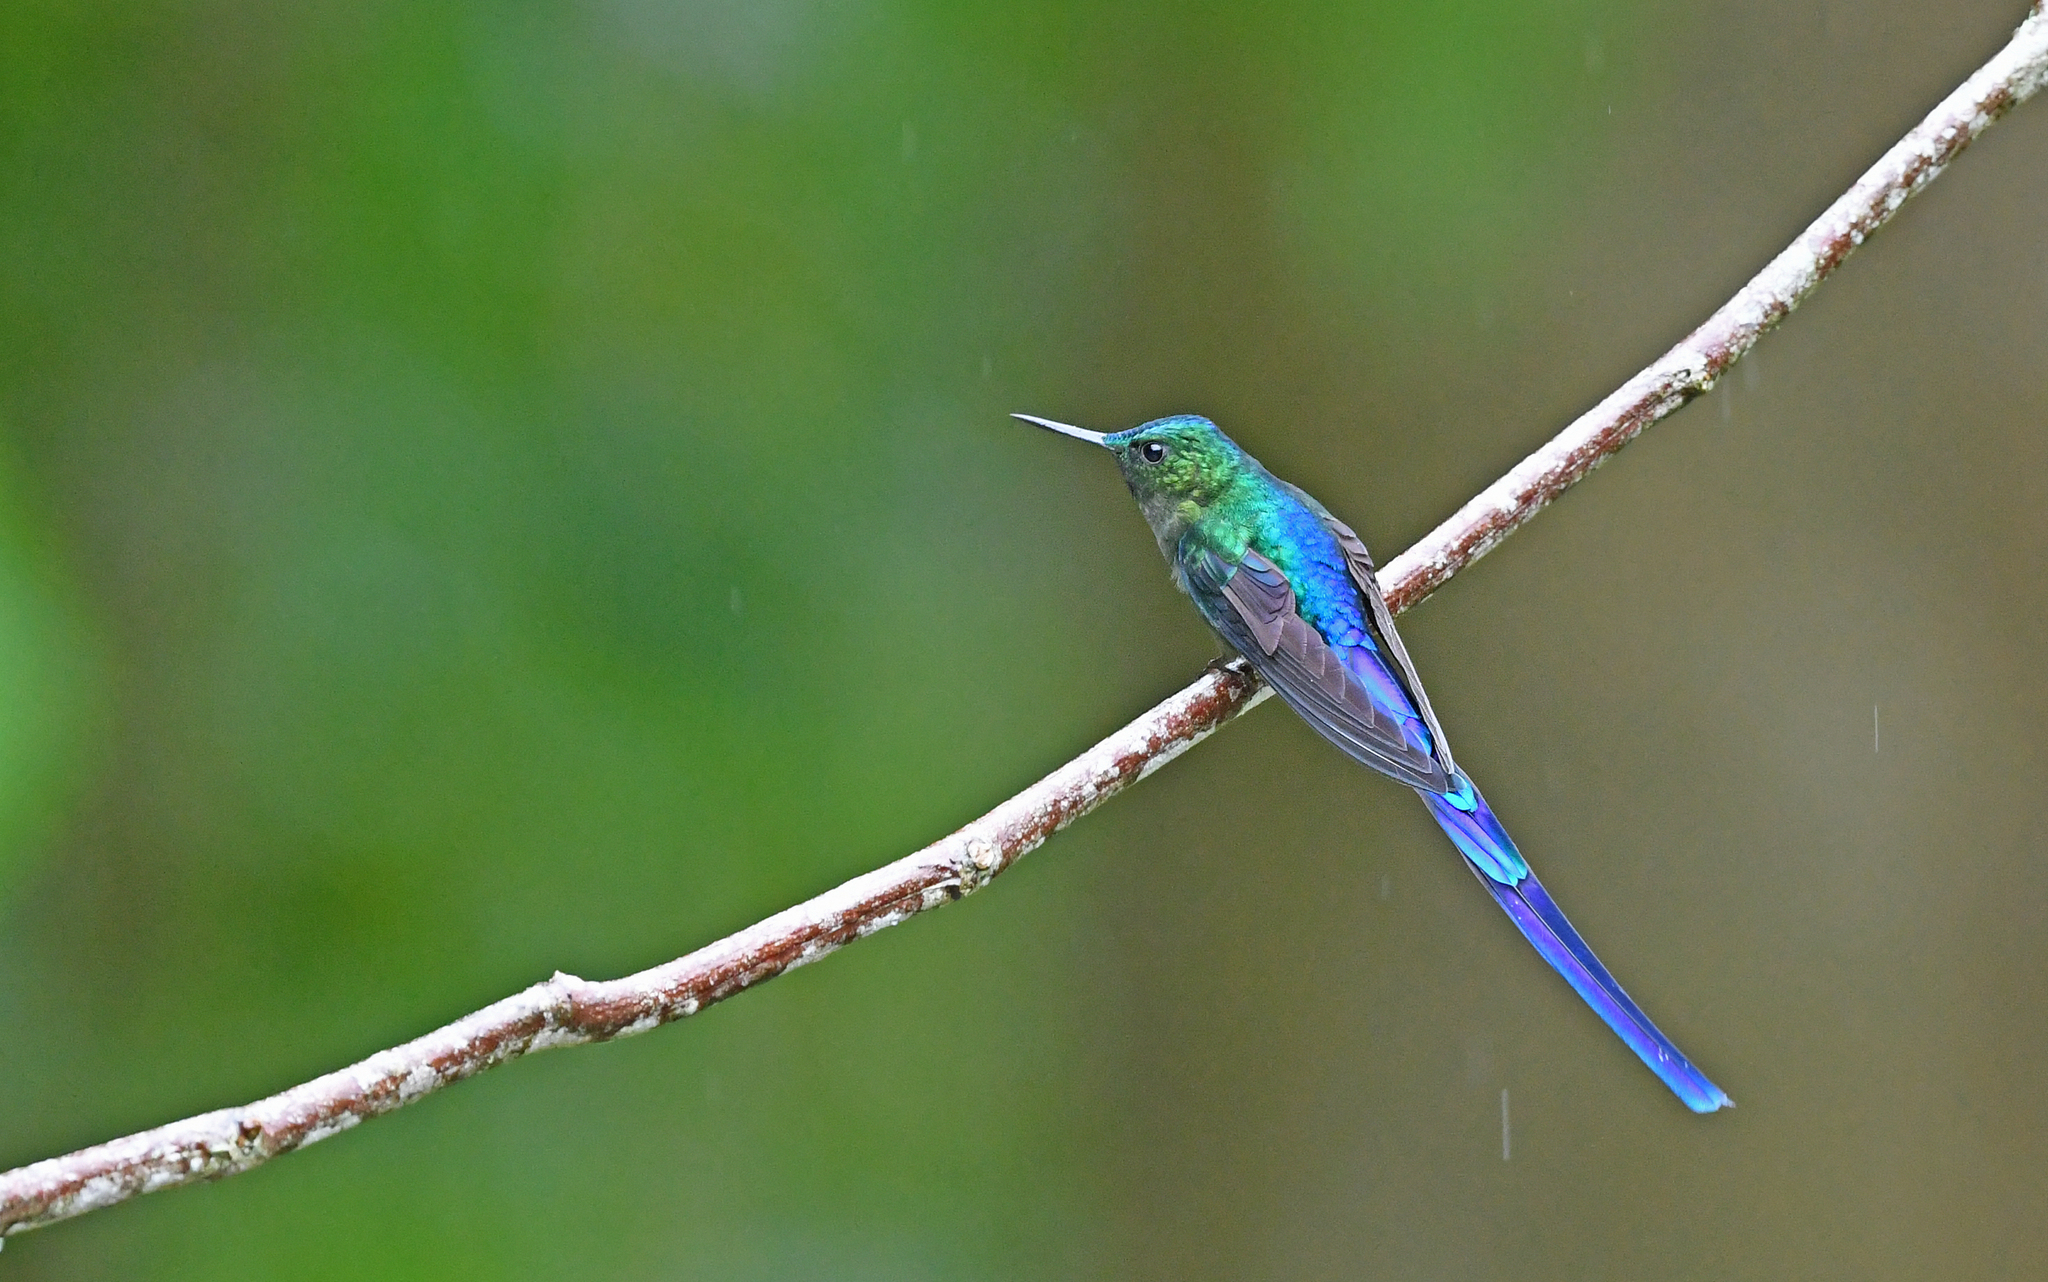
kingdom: Animalia
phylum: Chordata
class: Aves
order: Apodiformes
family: Trochilidae
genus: Aglaiocercus
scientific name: Aglaiocercus coelestis
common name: Violet-tailed sylph
